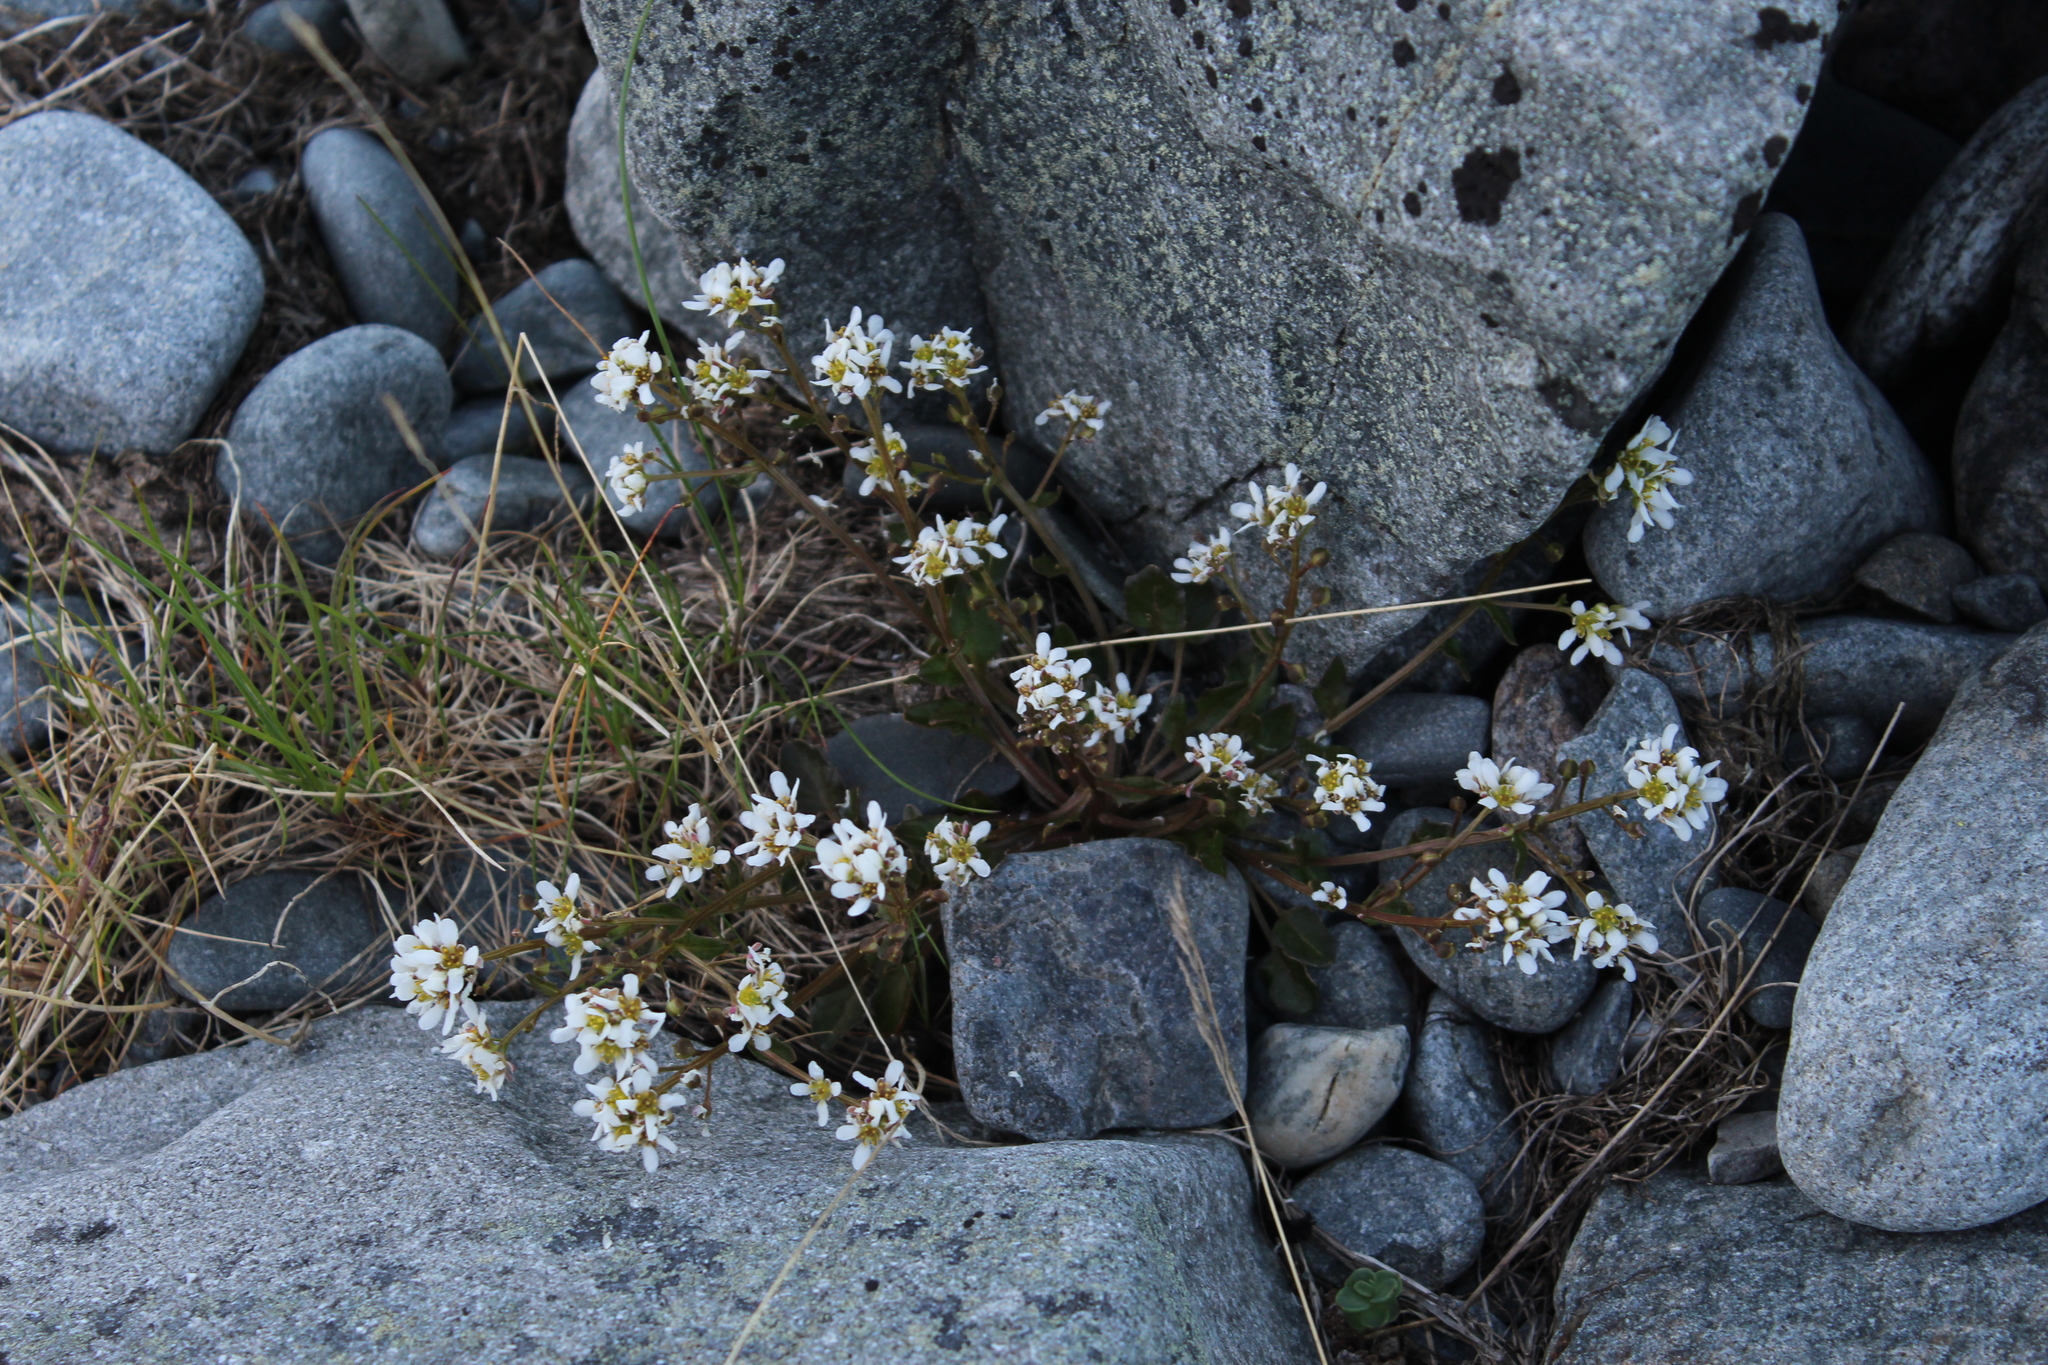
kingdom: Plantae
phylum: Tracheophyta
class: Magnoliopsida
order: Brassicales
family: Brassicaceae
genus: Cochlearia
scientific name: Cochlearia officinalis
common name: Scurvy-grass
